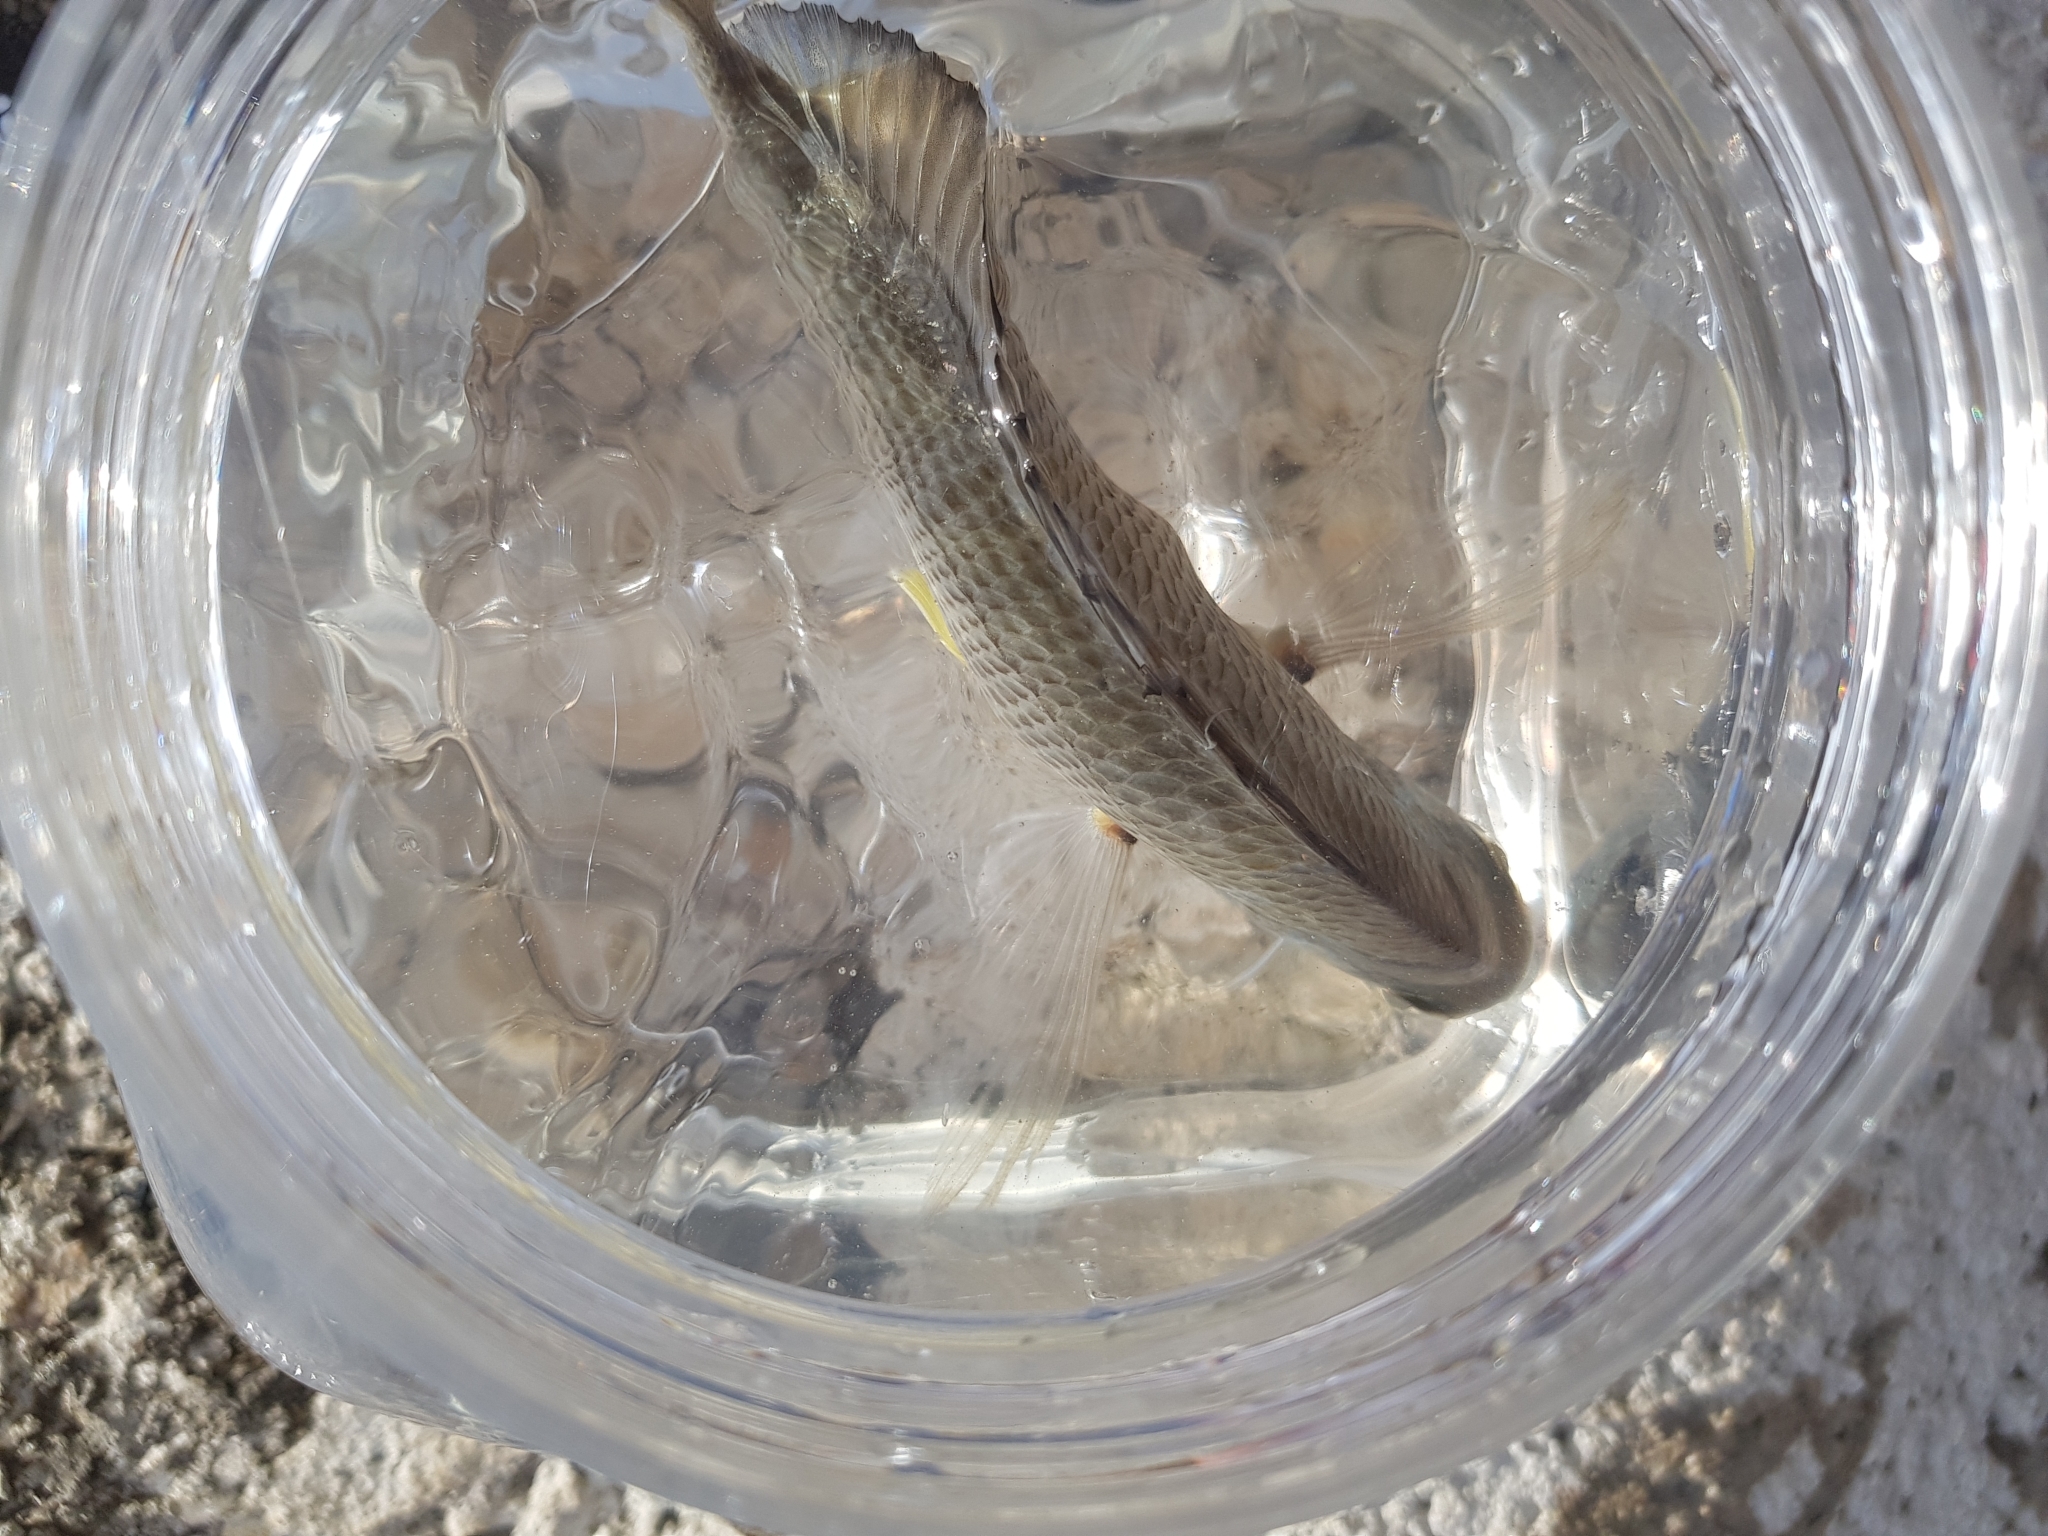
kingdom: Animalia
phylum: Chordata
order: Perciformes
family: Sparidae
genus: Acanthopagrus
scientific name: Acanthopagrus australis
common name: Surf bream
